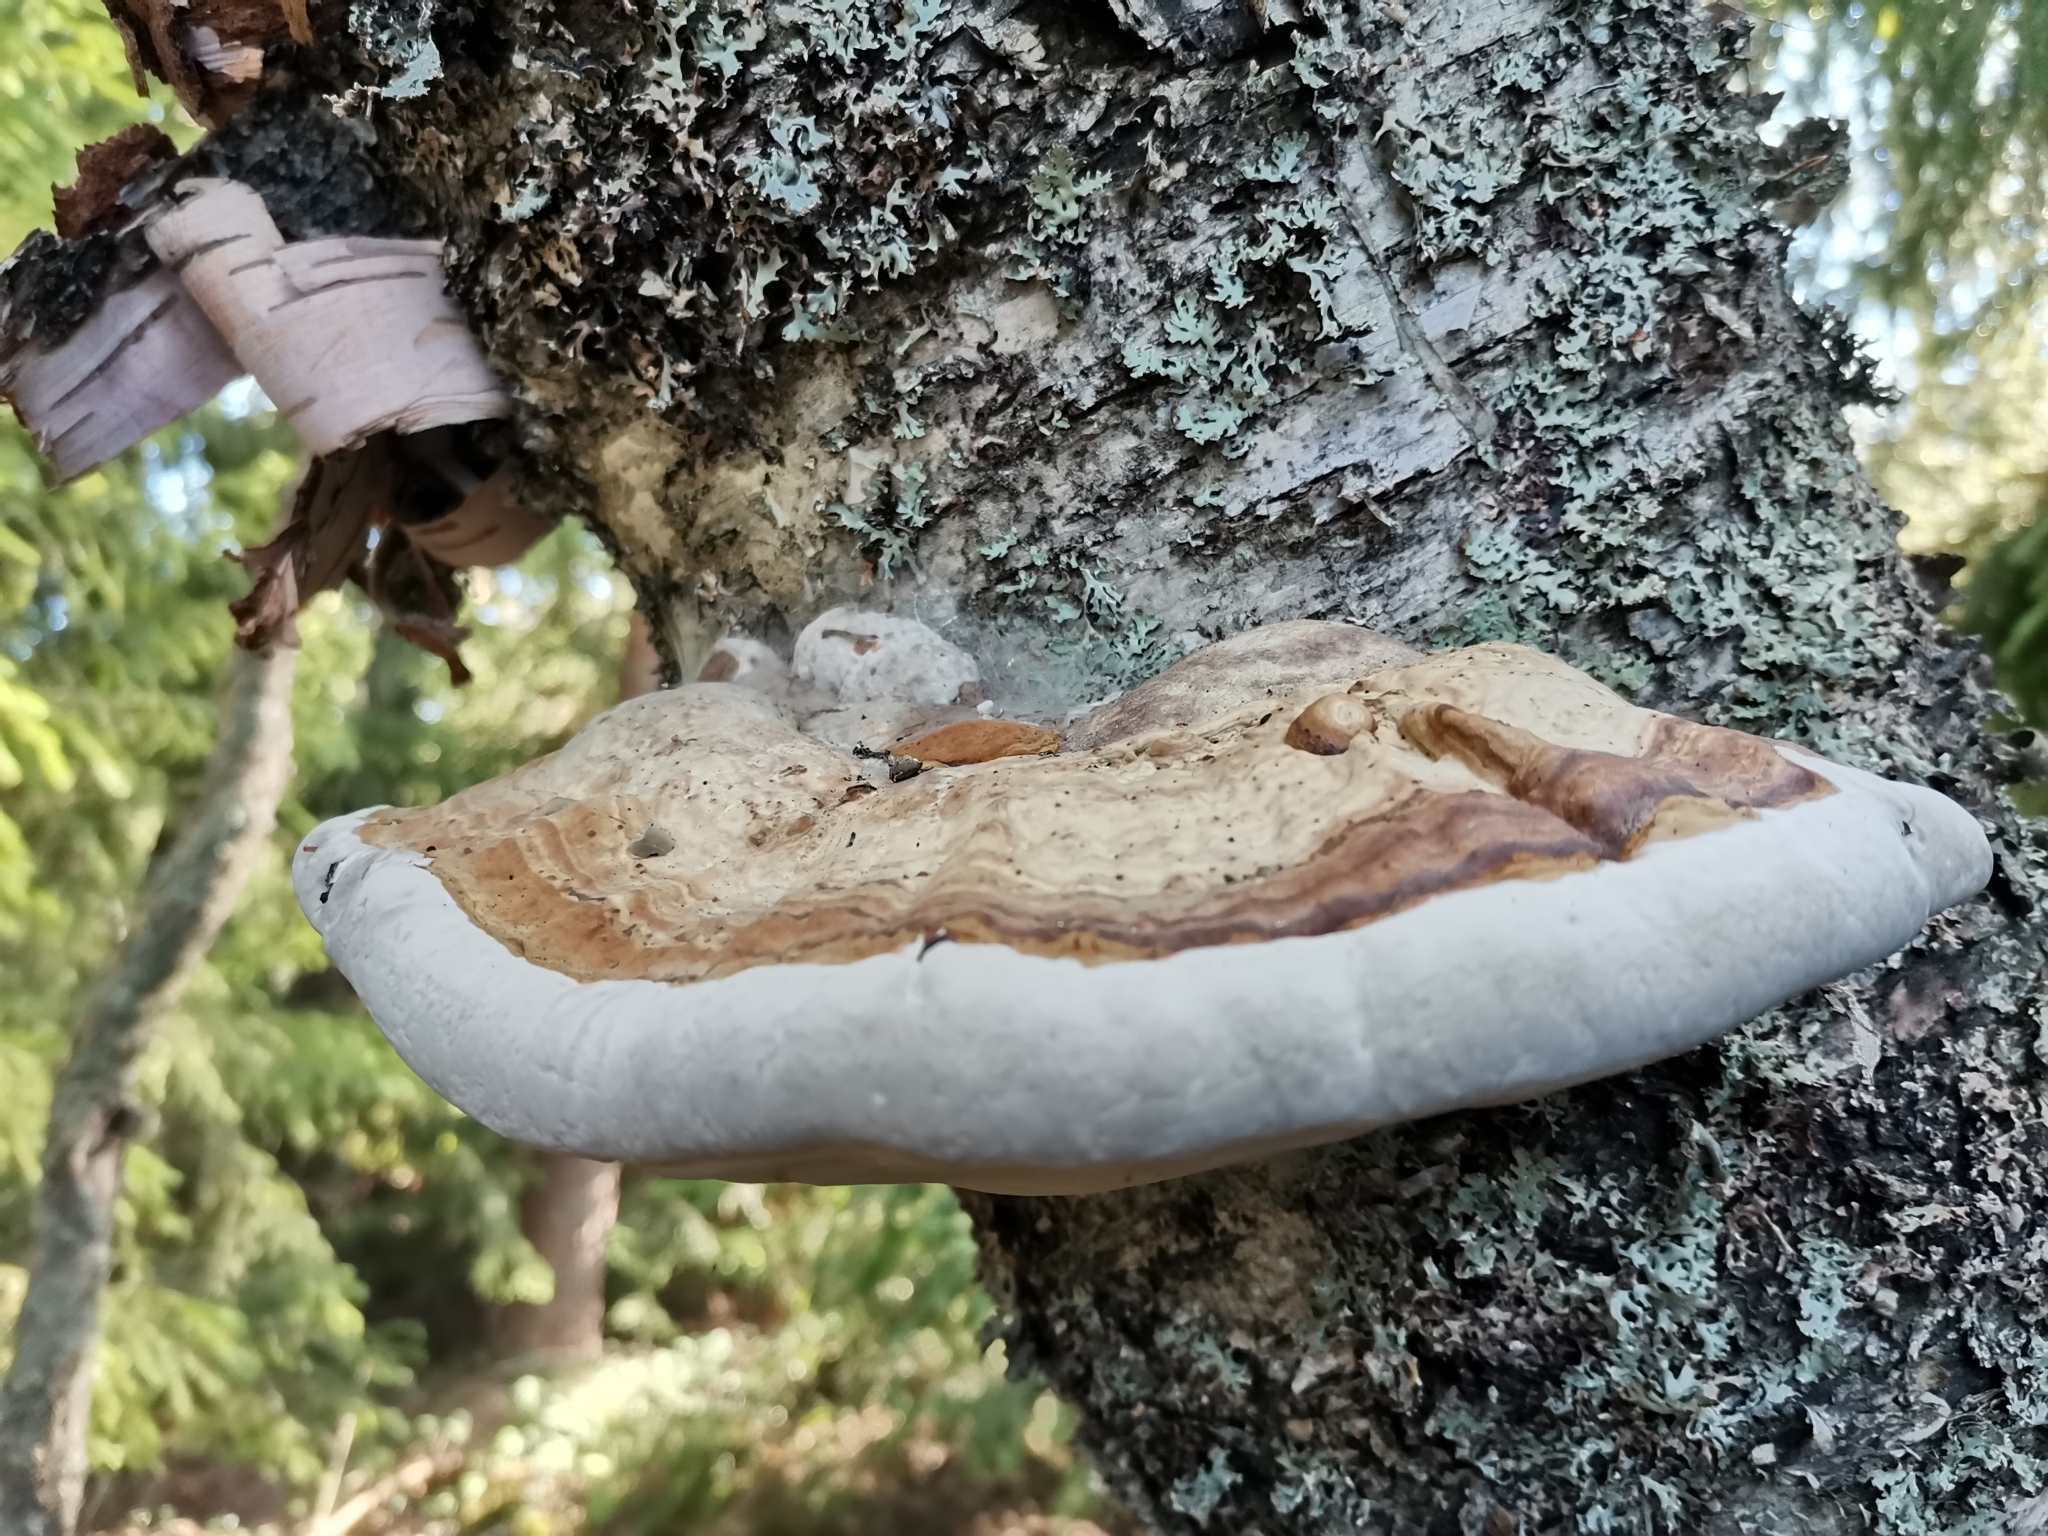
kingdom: Fungi
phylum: Basidiomycota
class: Agaricomycetes
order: Polyporales
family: Polyporaceae
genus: Fomes
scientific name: Fomes fomentarius
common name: Hoof fungus
